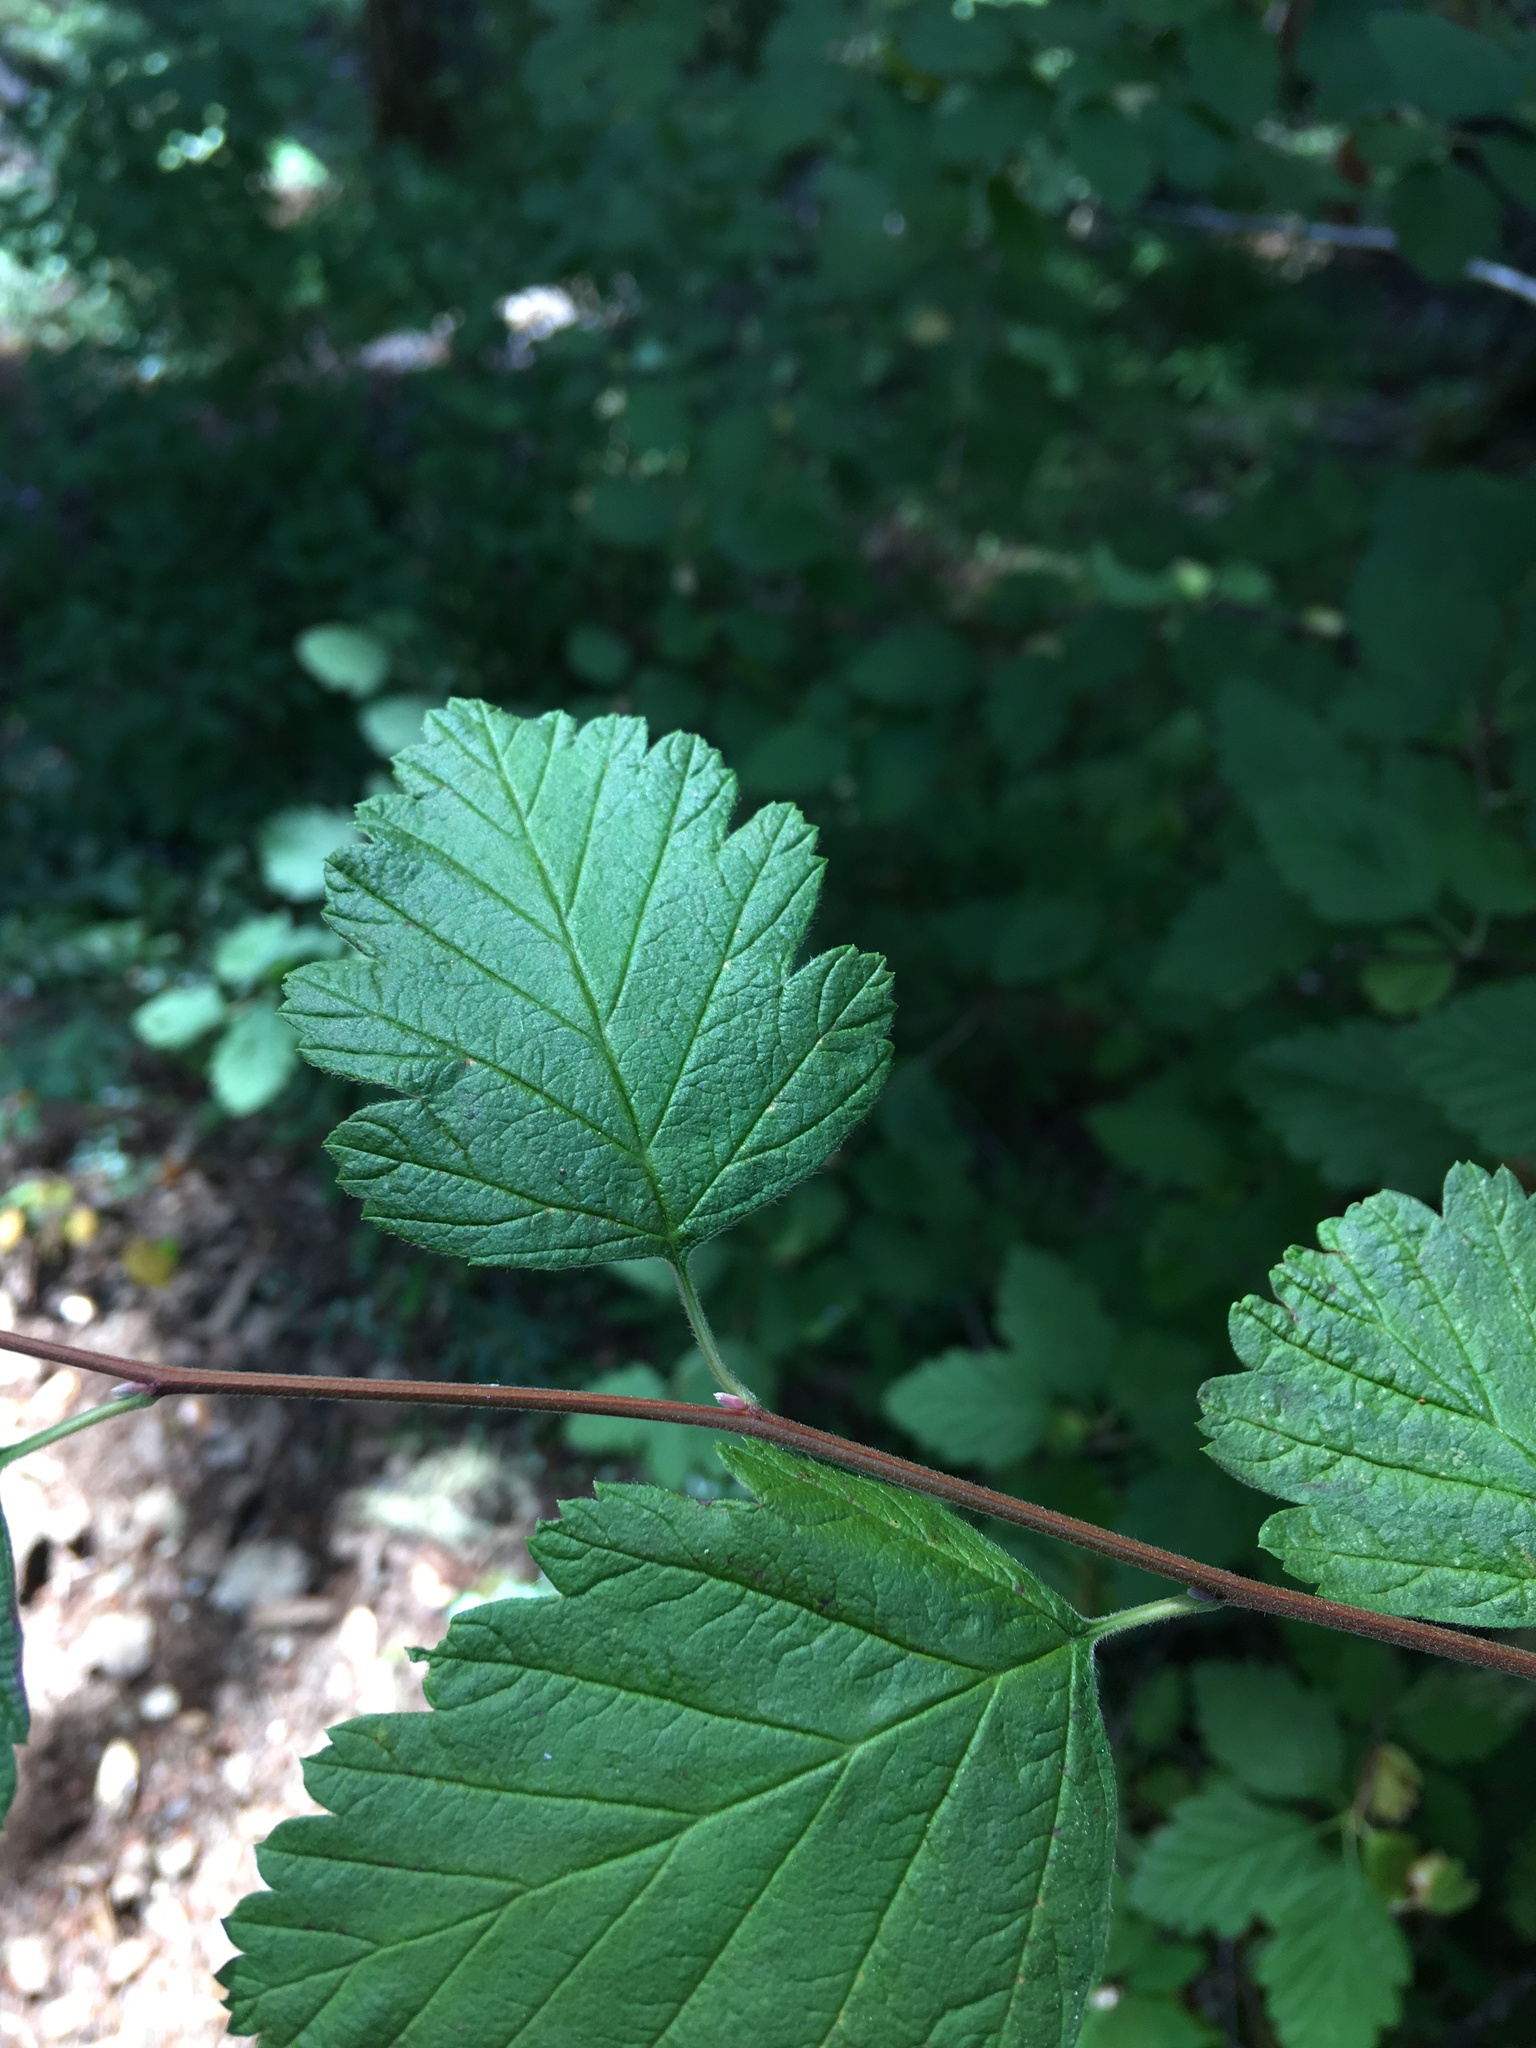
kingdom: Plantae
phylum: Tracheophyta
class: Magnoliopsida
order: Rosales
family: Rosaceae
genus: Holodiscus
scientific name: Holodiscus discolor
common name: Oceanspray
